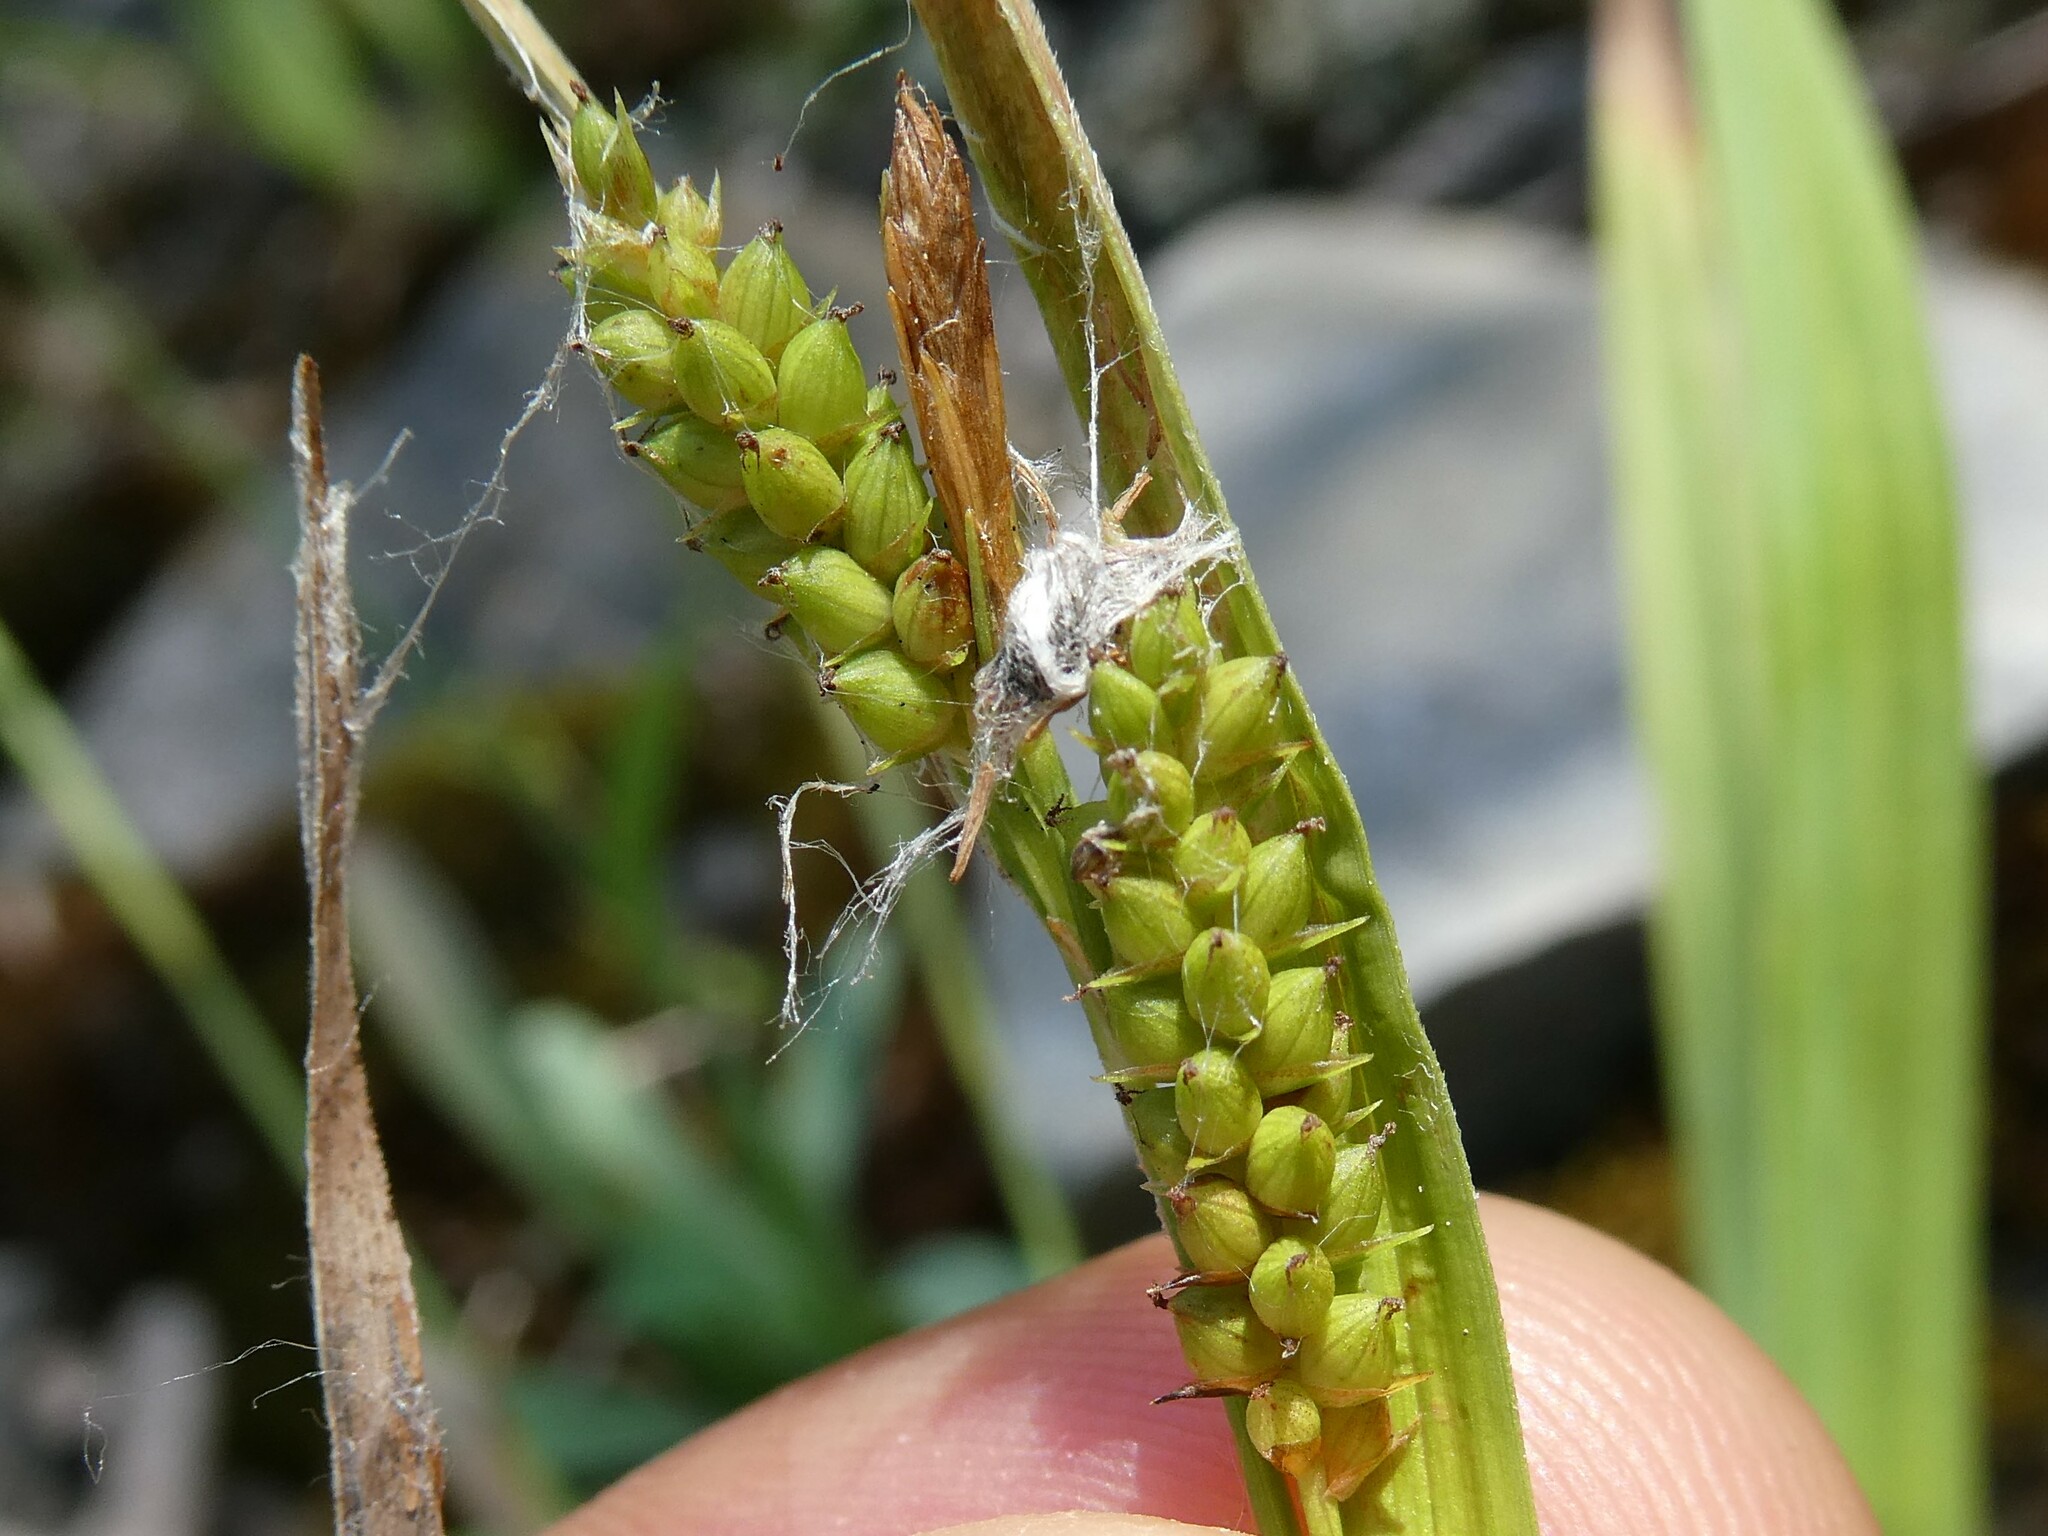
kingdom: Plantae
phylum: Tracheophyta
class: Liliopsida
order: Poales
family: Cyperaceae
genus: Carex
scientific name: Carex granularis
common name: Granular sedge
